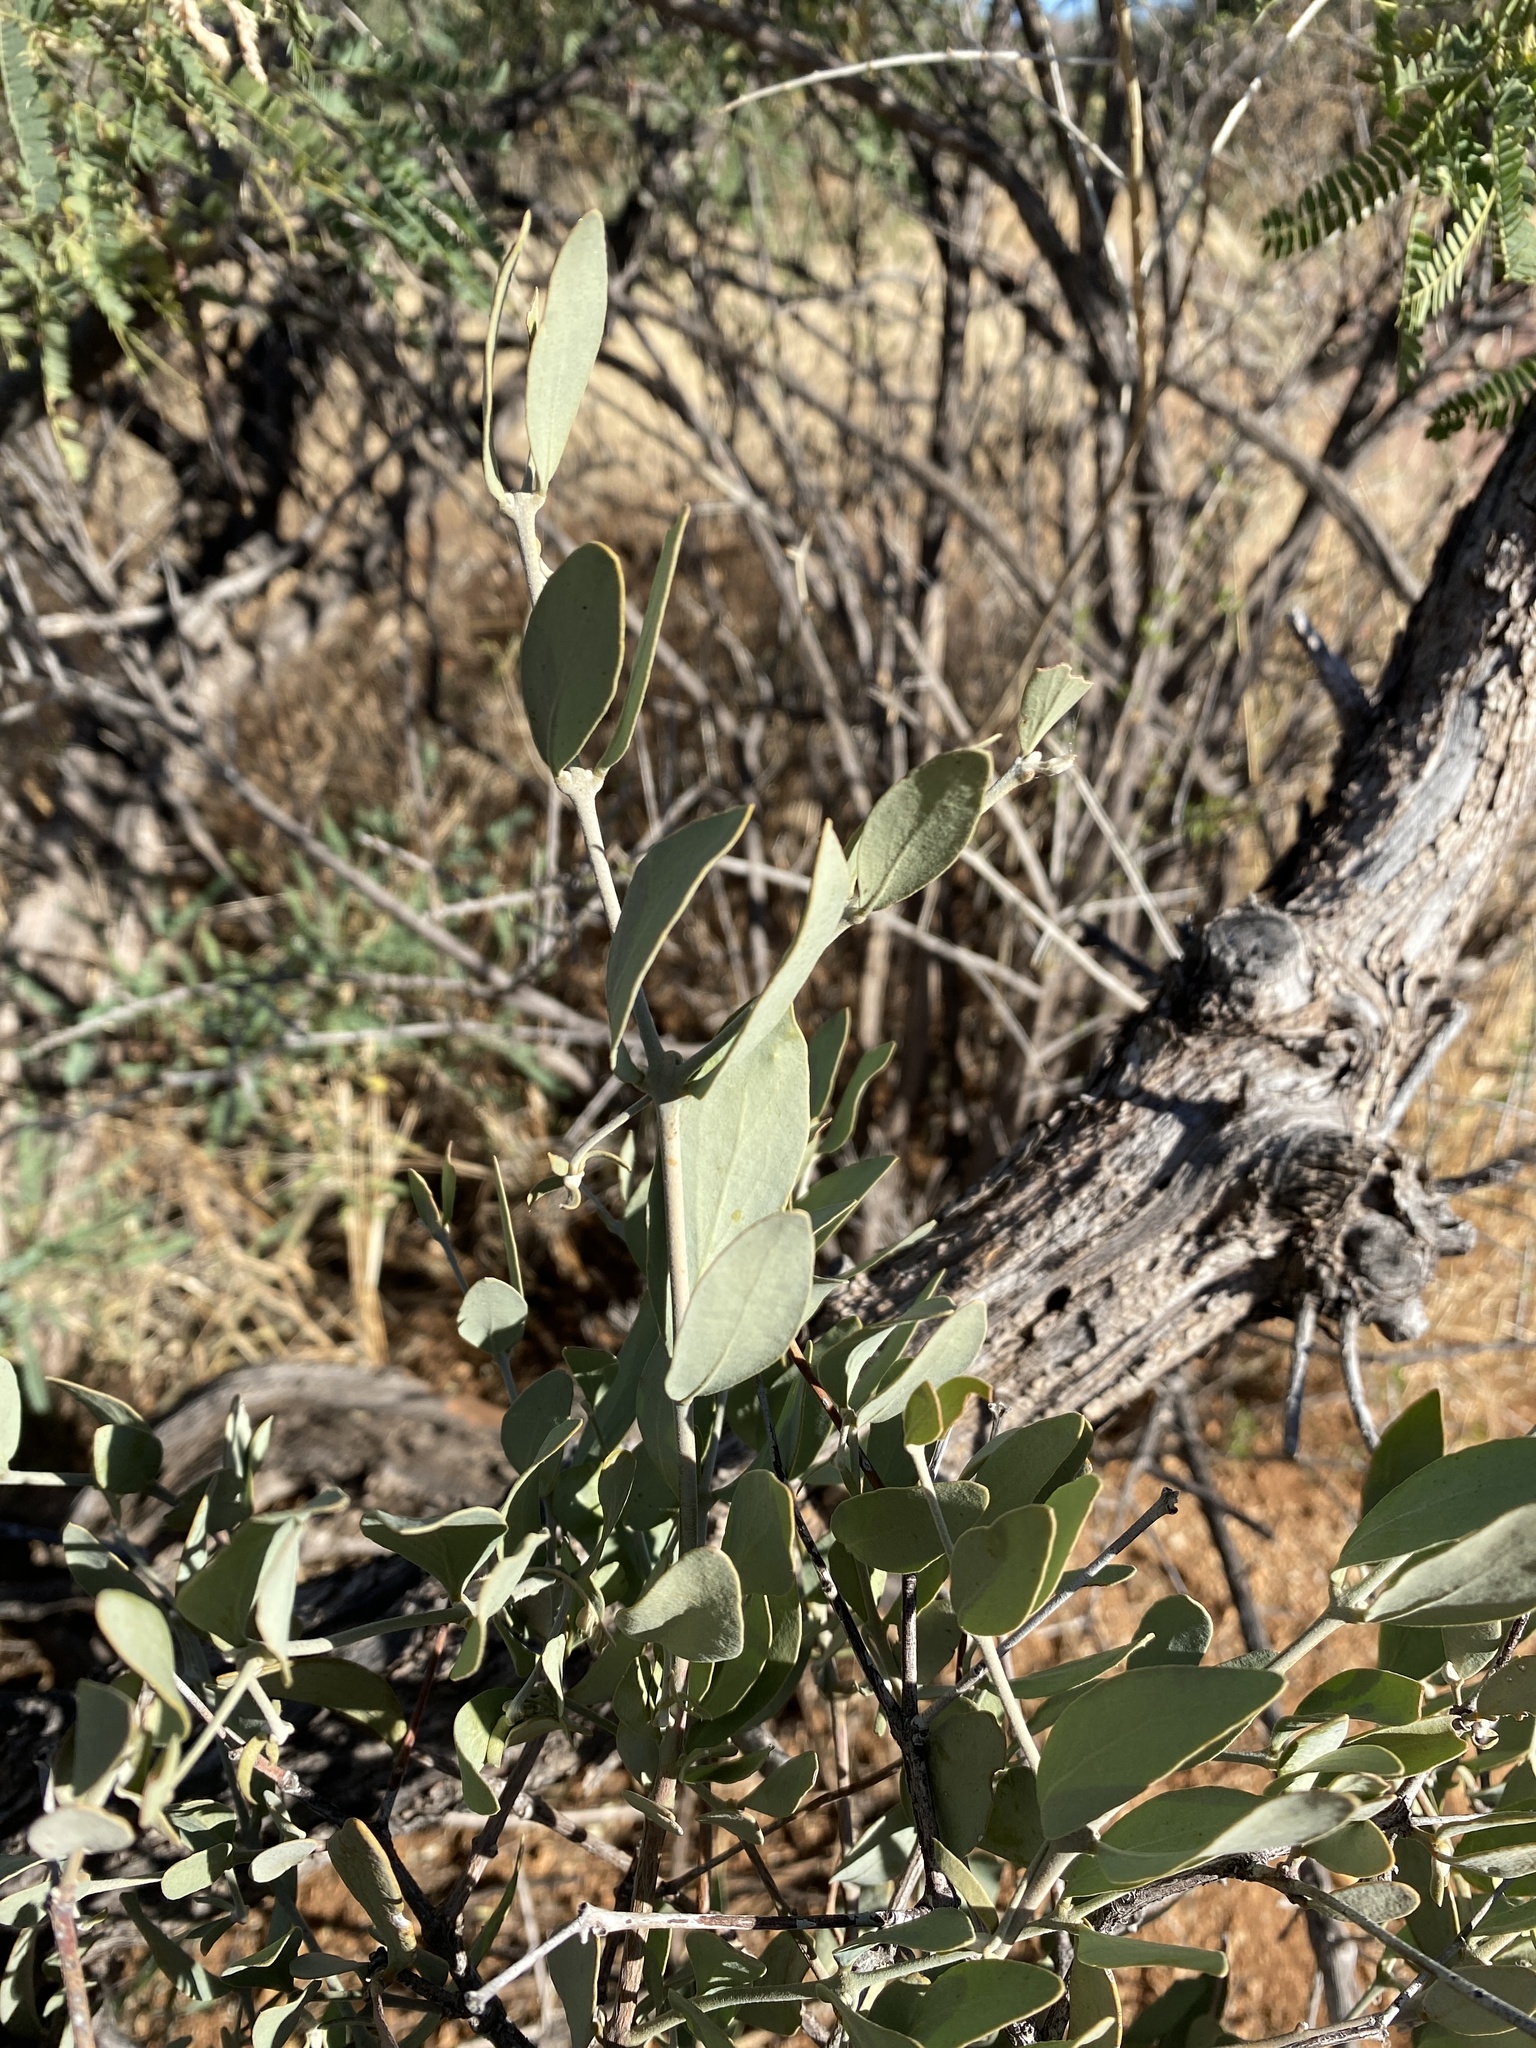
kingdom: Plantae
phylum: Tracheophyta
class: Magnoliopsida
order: Caryophyllales
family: Simmondsiaceae
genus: Simmondsia
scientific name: Simmondsia chinensis
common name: Jojoba
